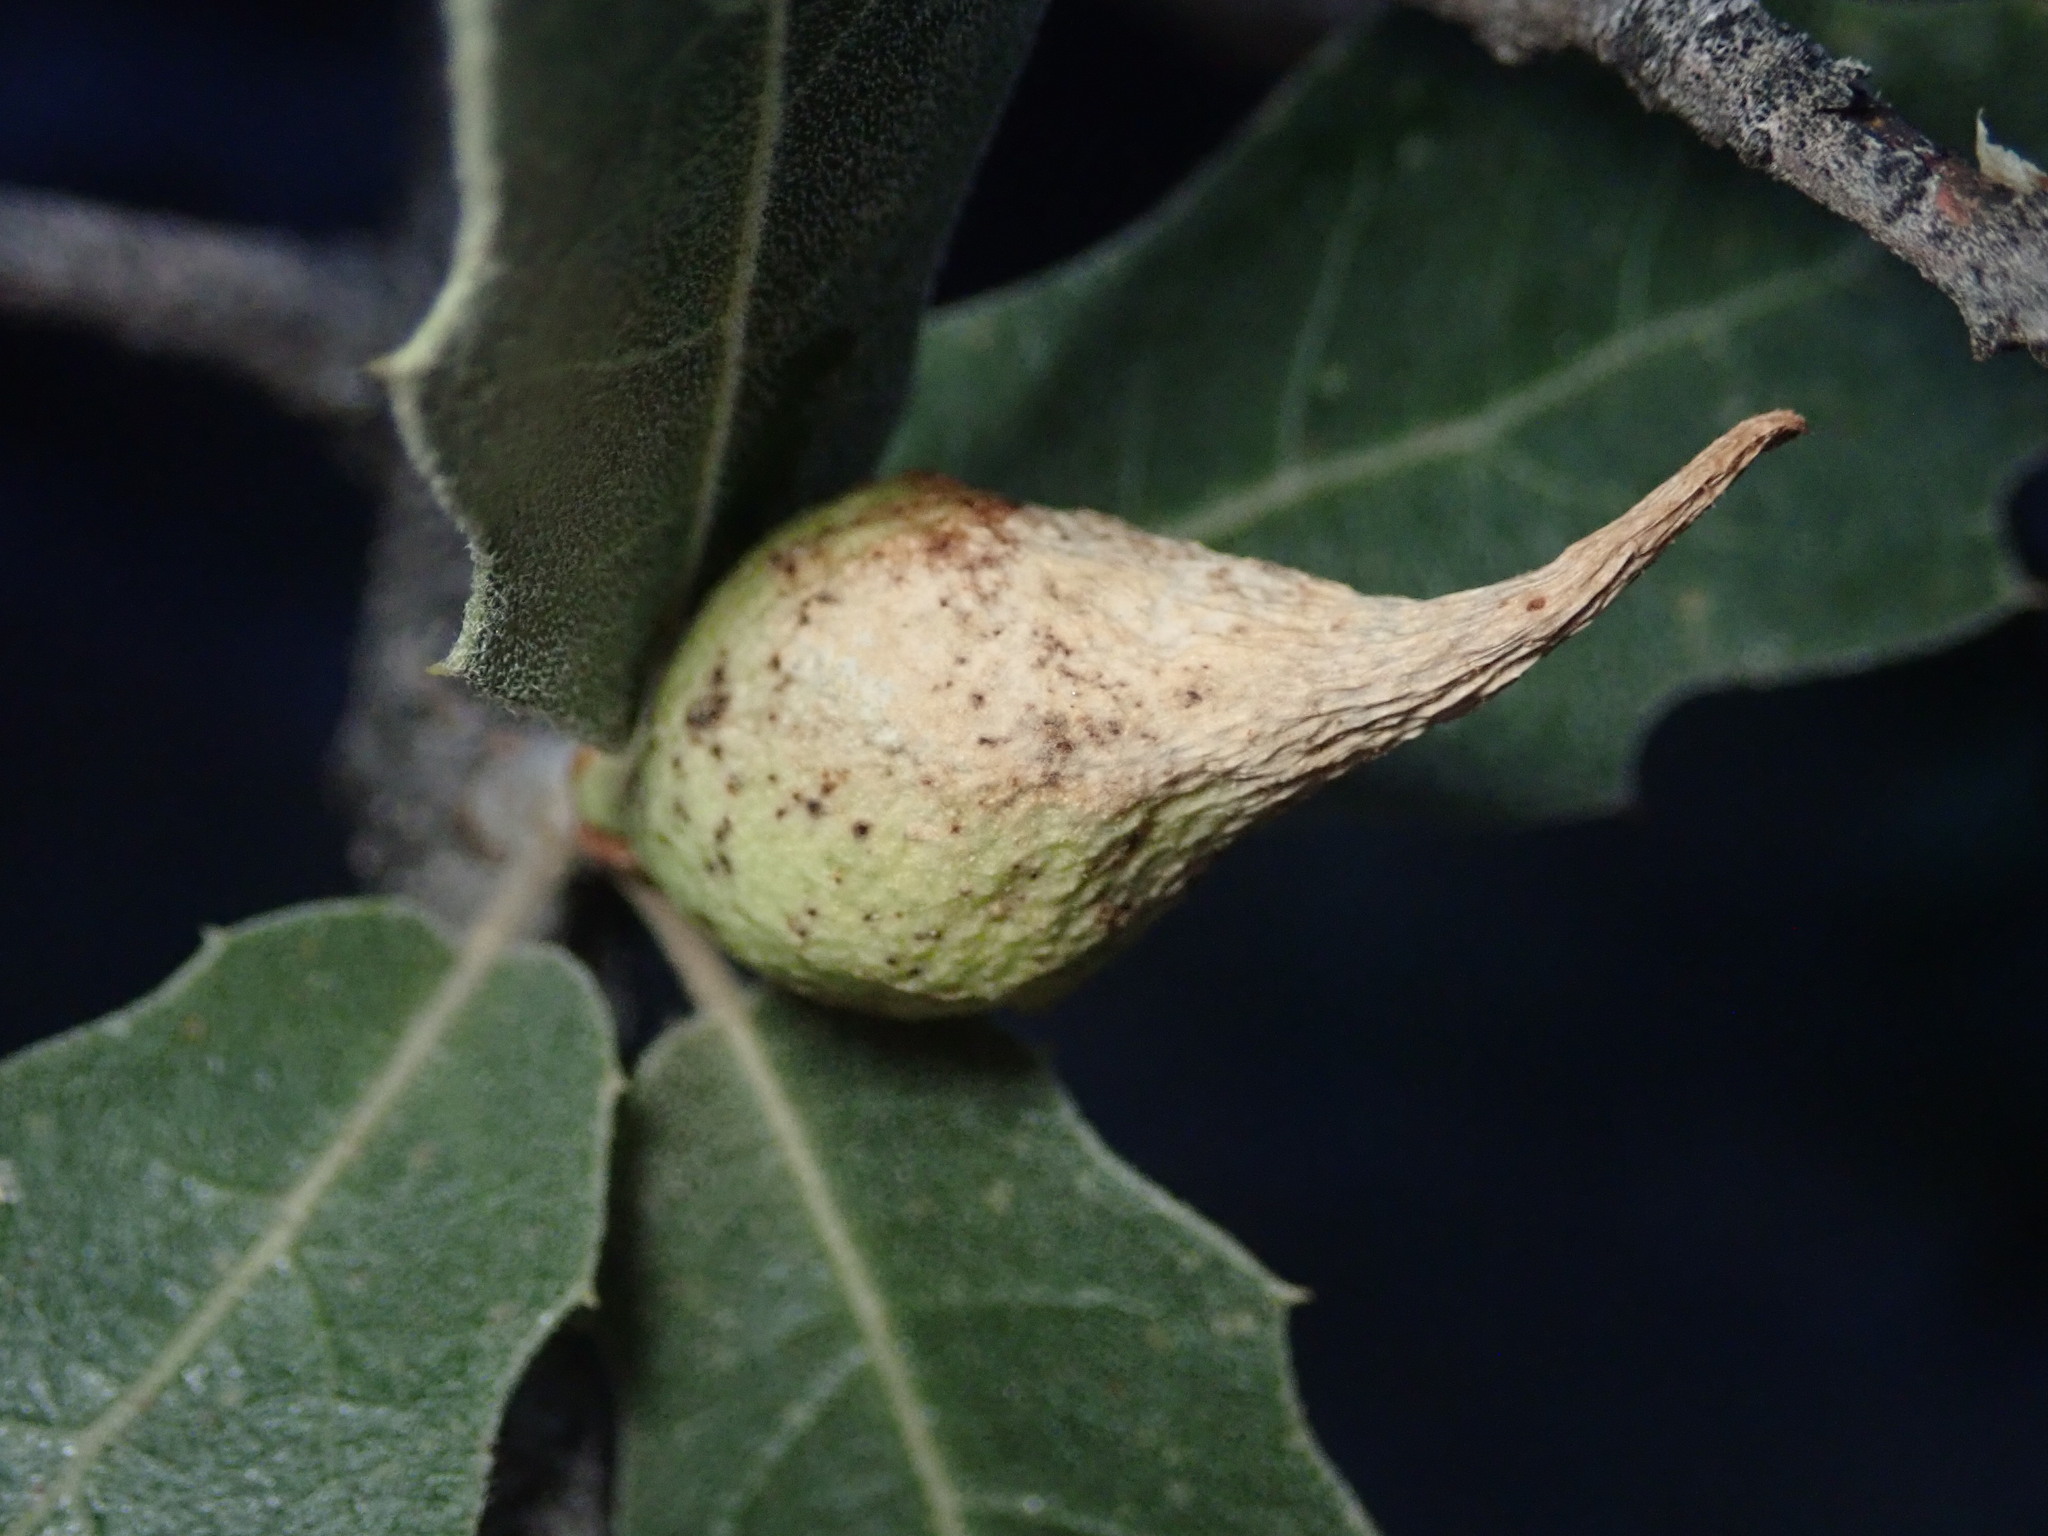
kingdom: Animalia
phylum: Arthropoda
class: Insecta
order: Hymenoptera
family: Cynipidae
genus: Amphibolips
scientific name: Amphibolips fusus
